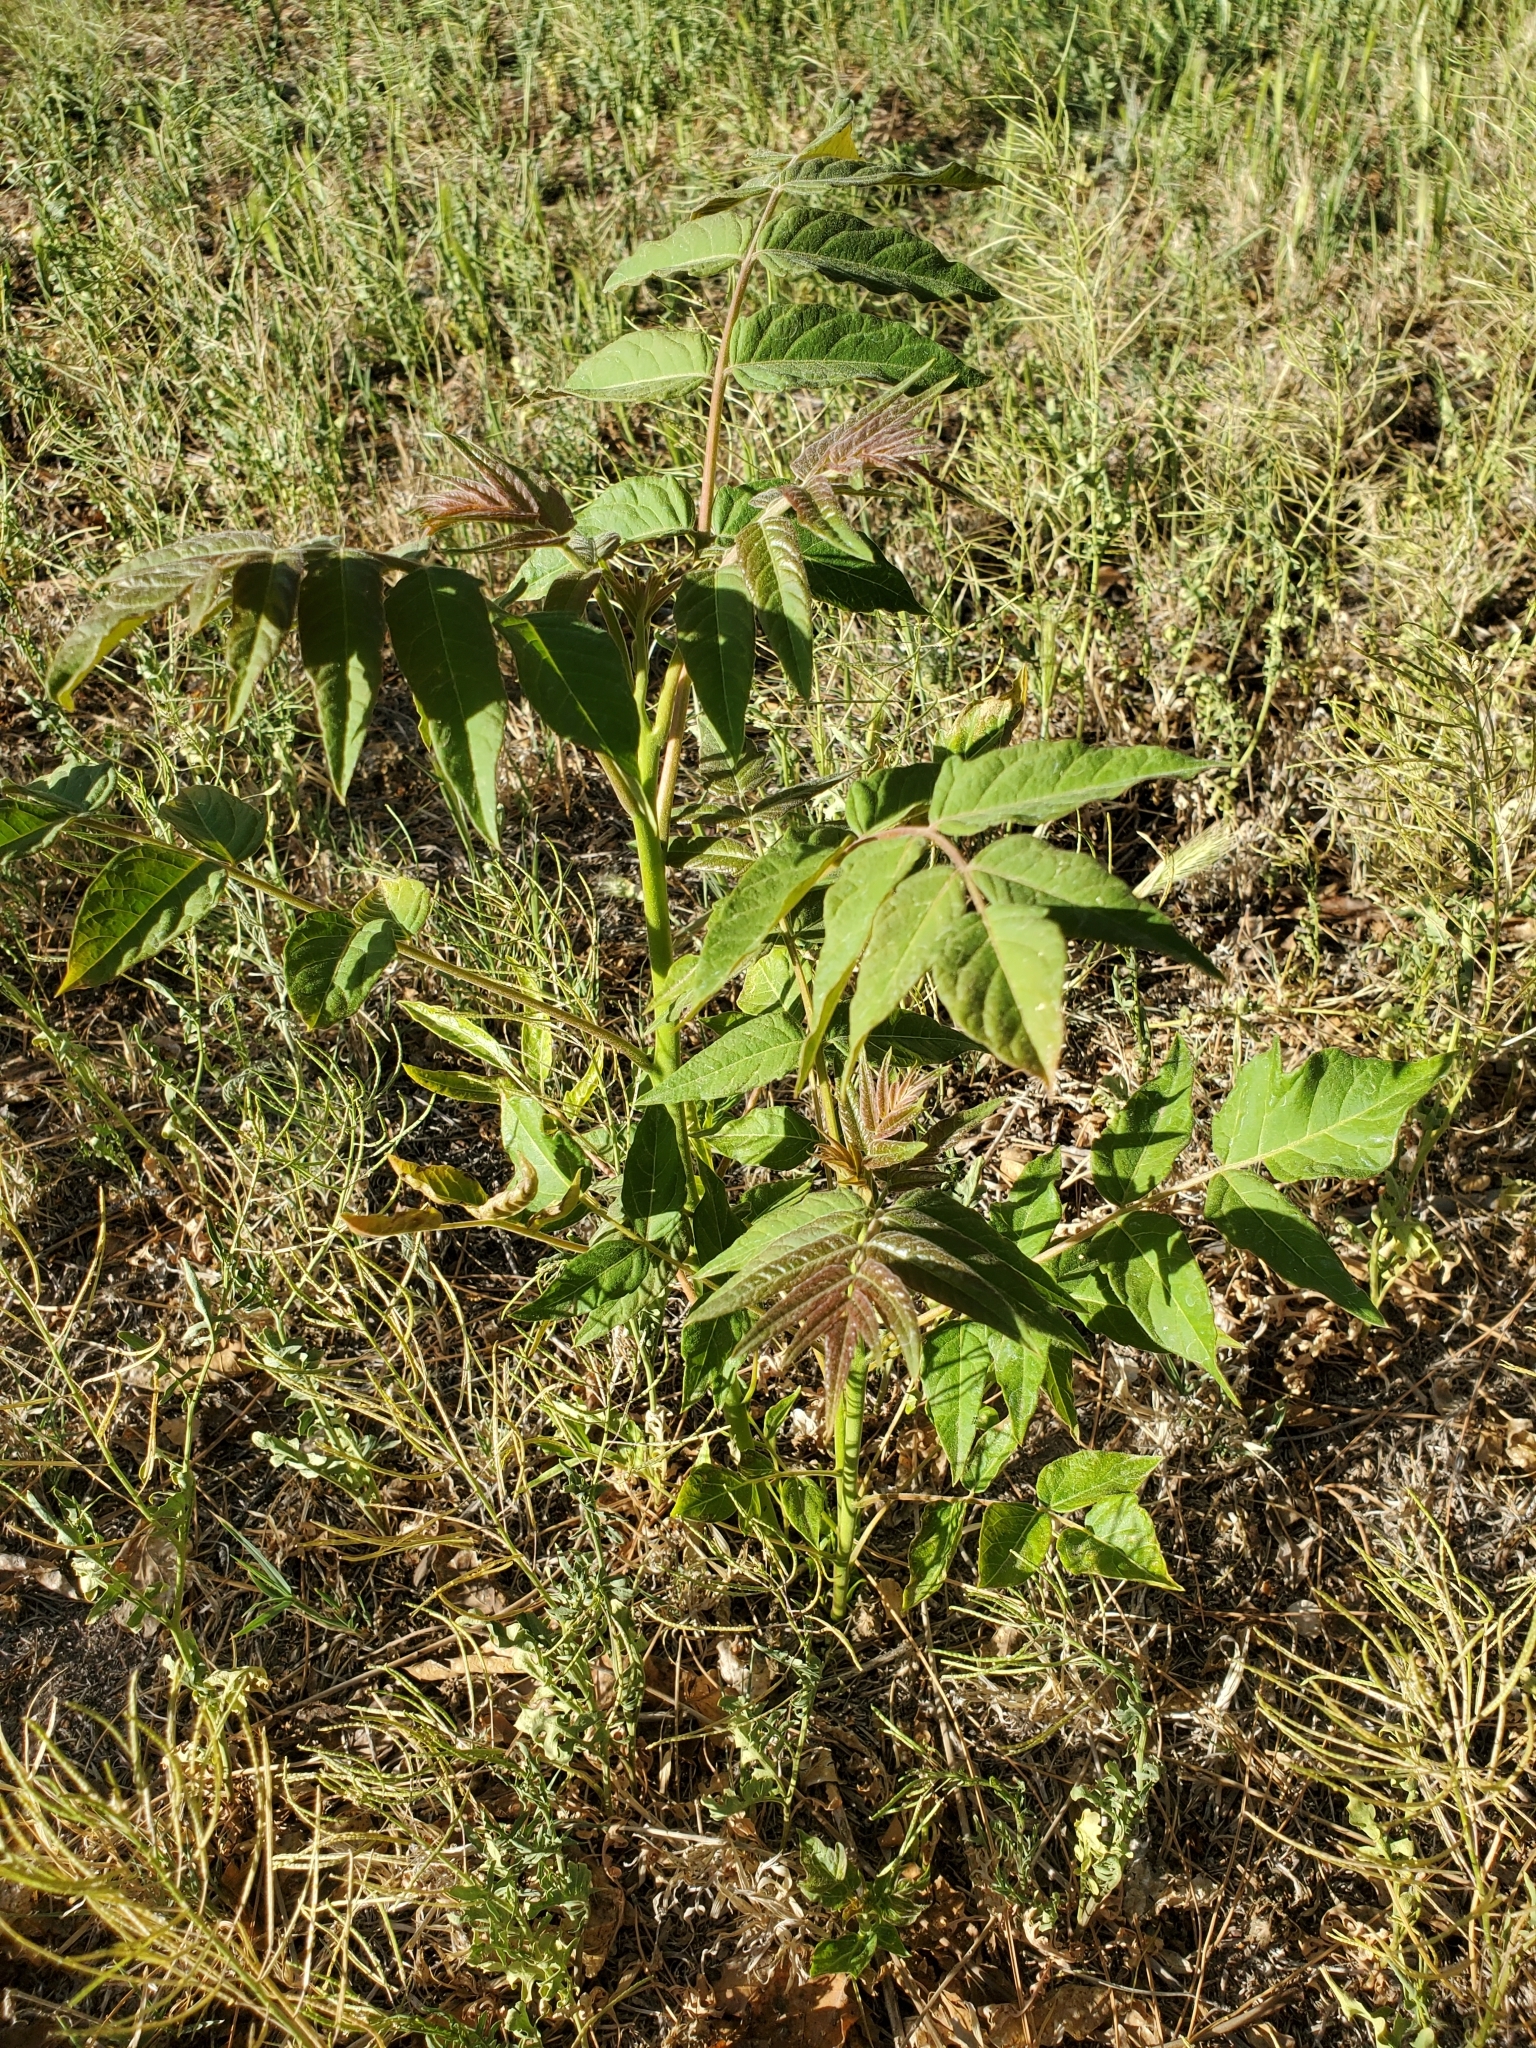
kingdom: Plantae
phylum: Tracheophyta
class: Magnoliopsida
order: Sapindales
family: Simaroubaceae
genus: Ailanthus
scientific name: Ailanthus altissima
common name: Tree-of-heaven
